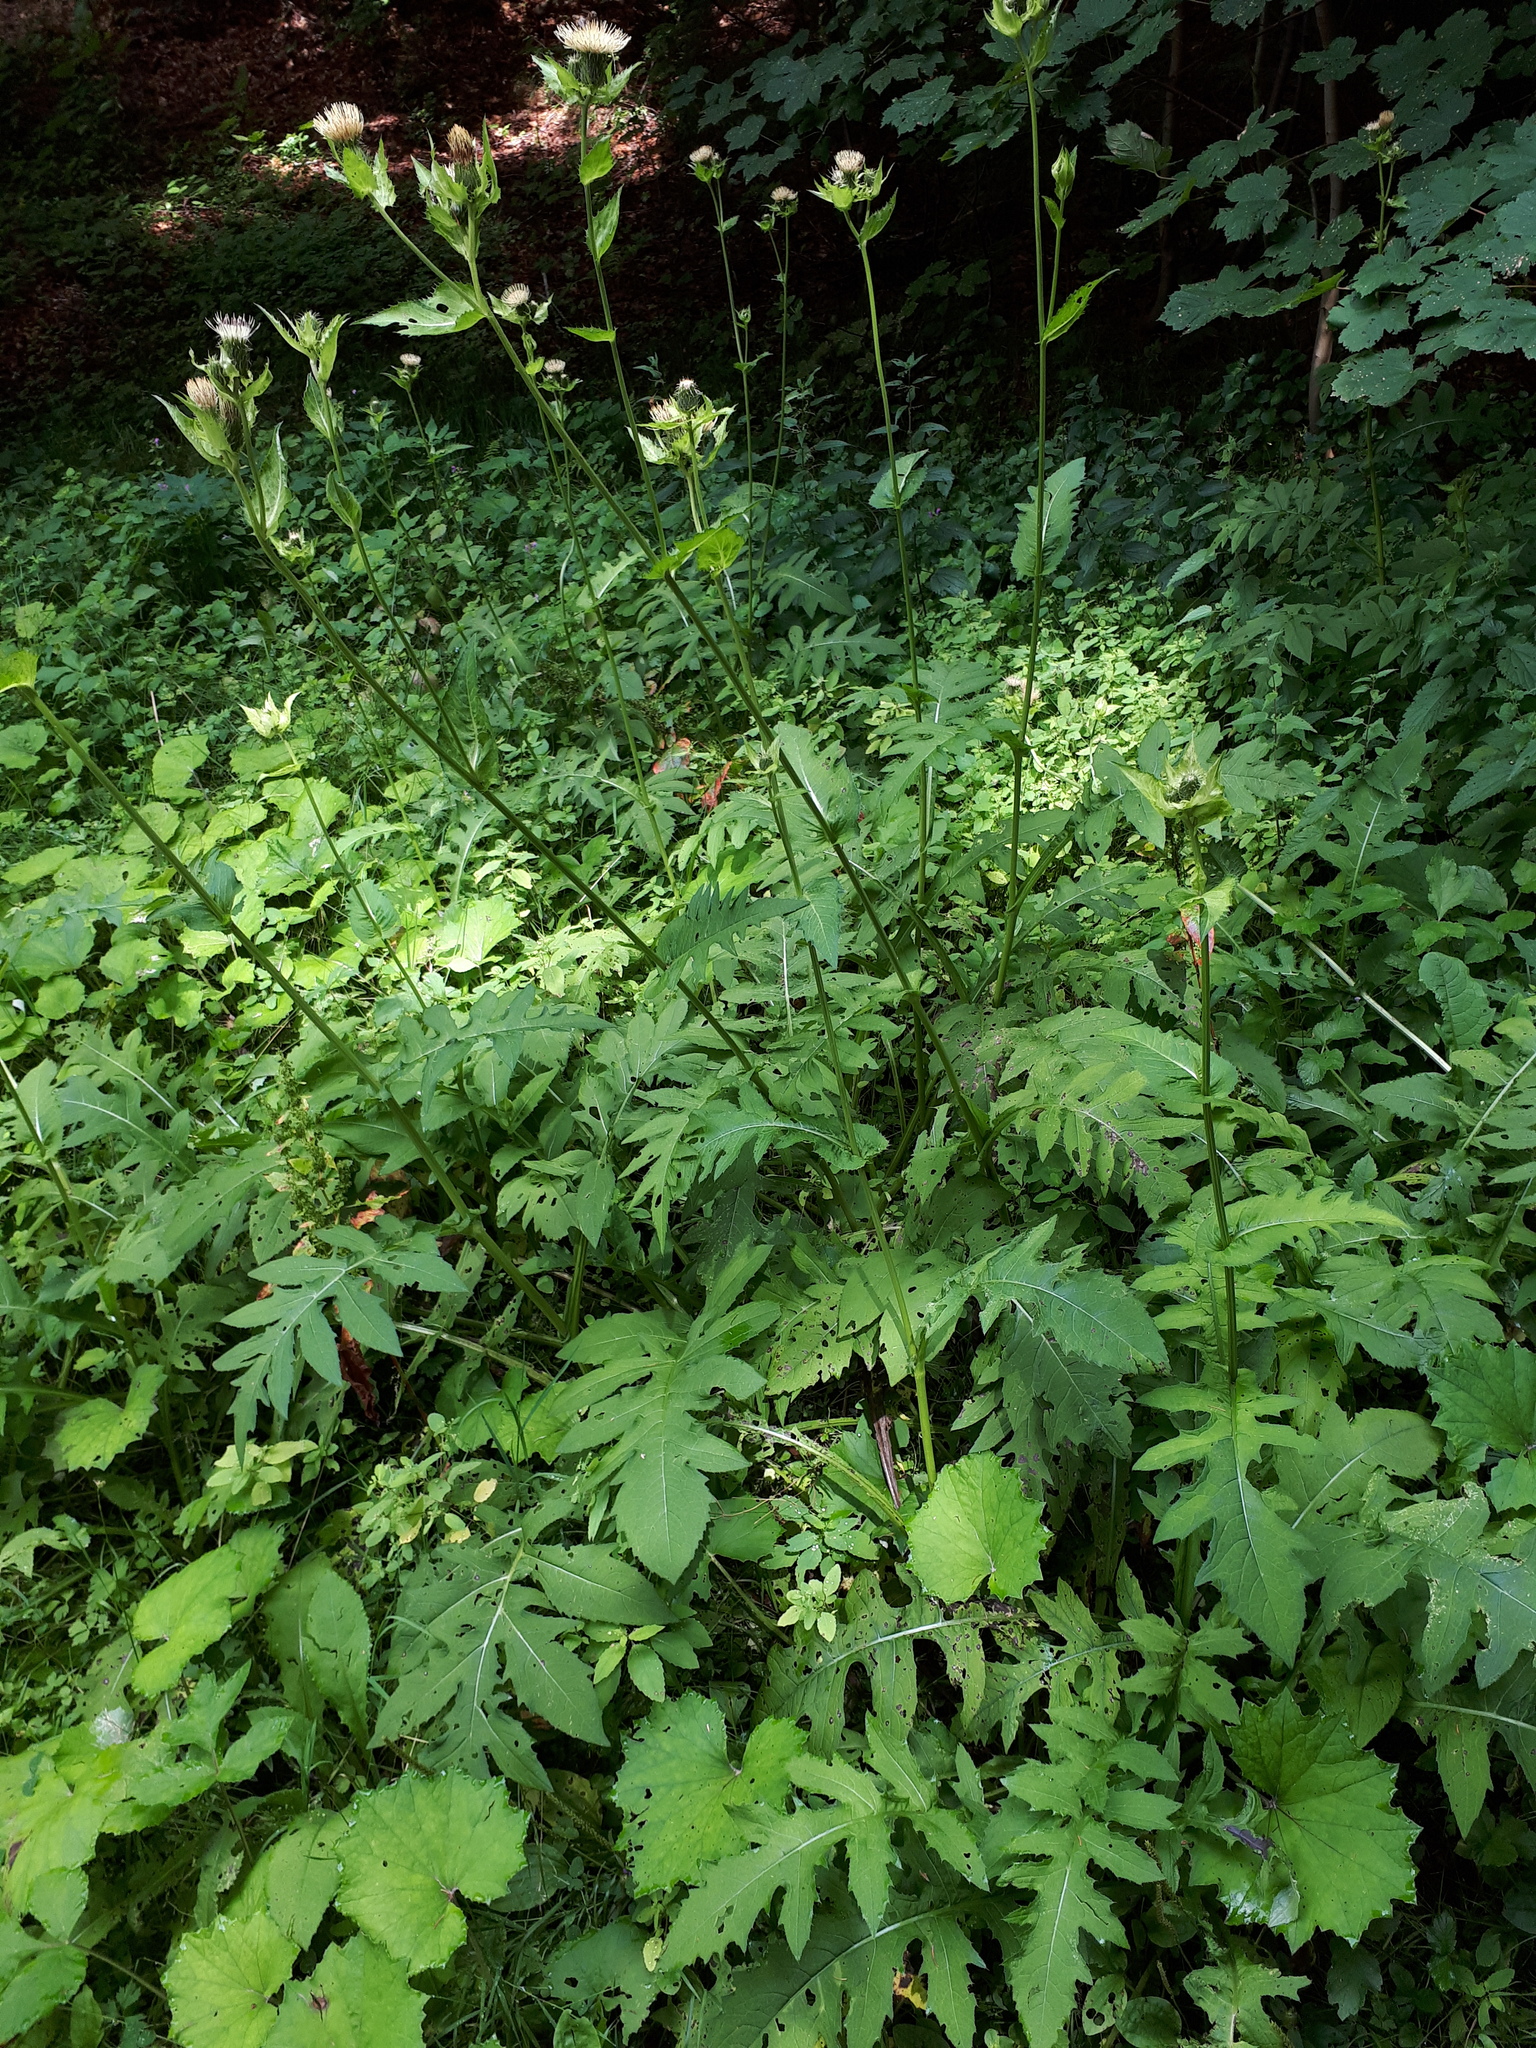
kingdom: Plantae
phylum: Tracheophyta
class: Magnoliopsida
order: Asterales
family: Asteraceae
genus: Cirsium
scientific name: Cirsium oleraceum
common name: Cabbage thistle
